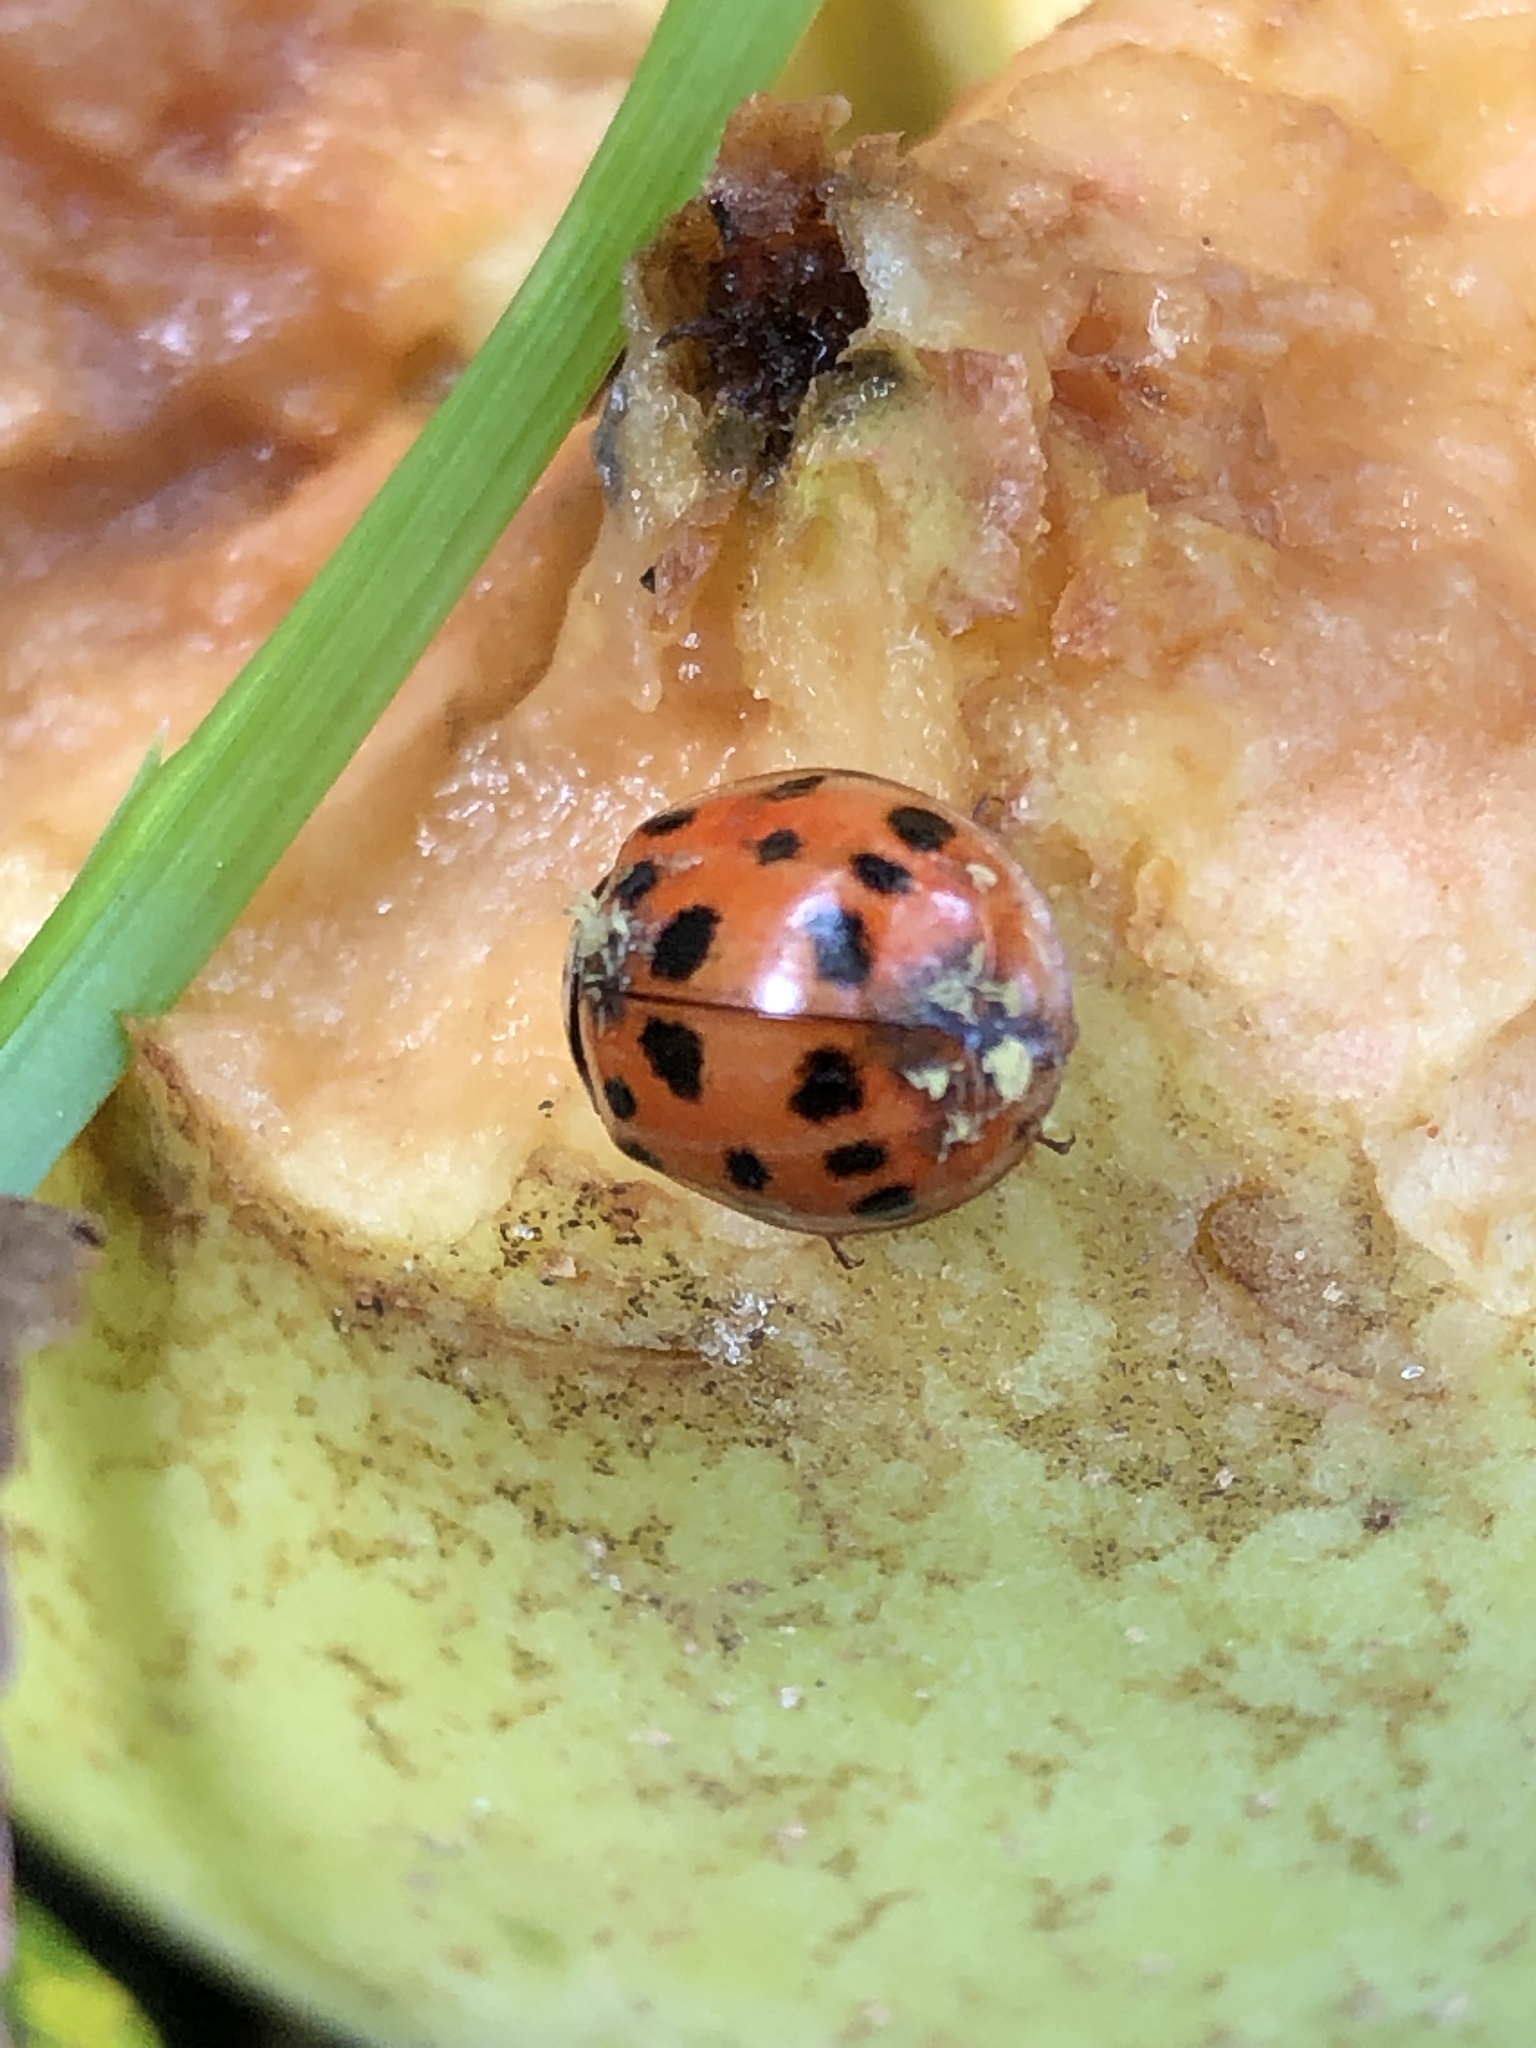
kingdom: Animalia
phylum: Arthropoda
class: Insecta
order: Coleoptera
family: Coccinellidae
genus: Harmonia
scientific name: Harmonia axyridis
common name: Harlequin ladybird
